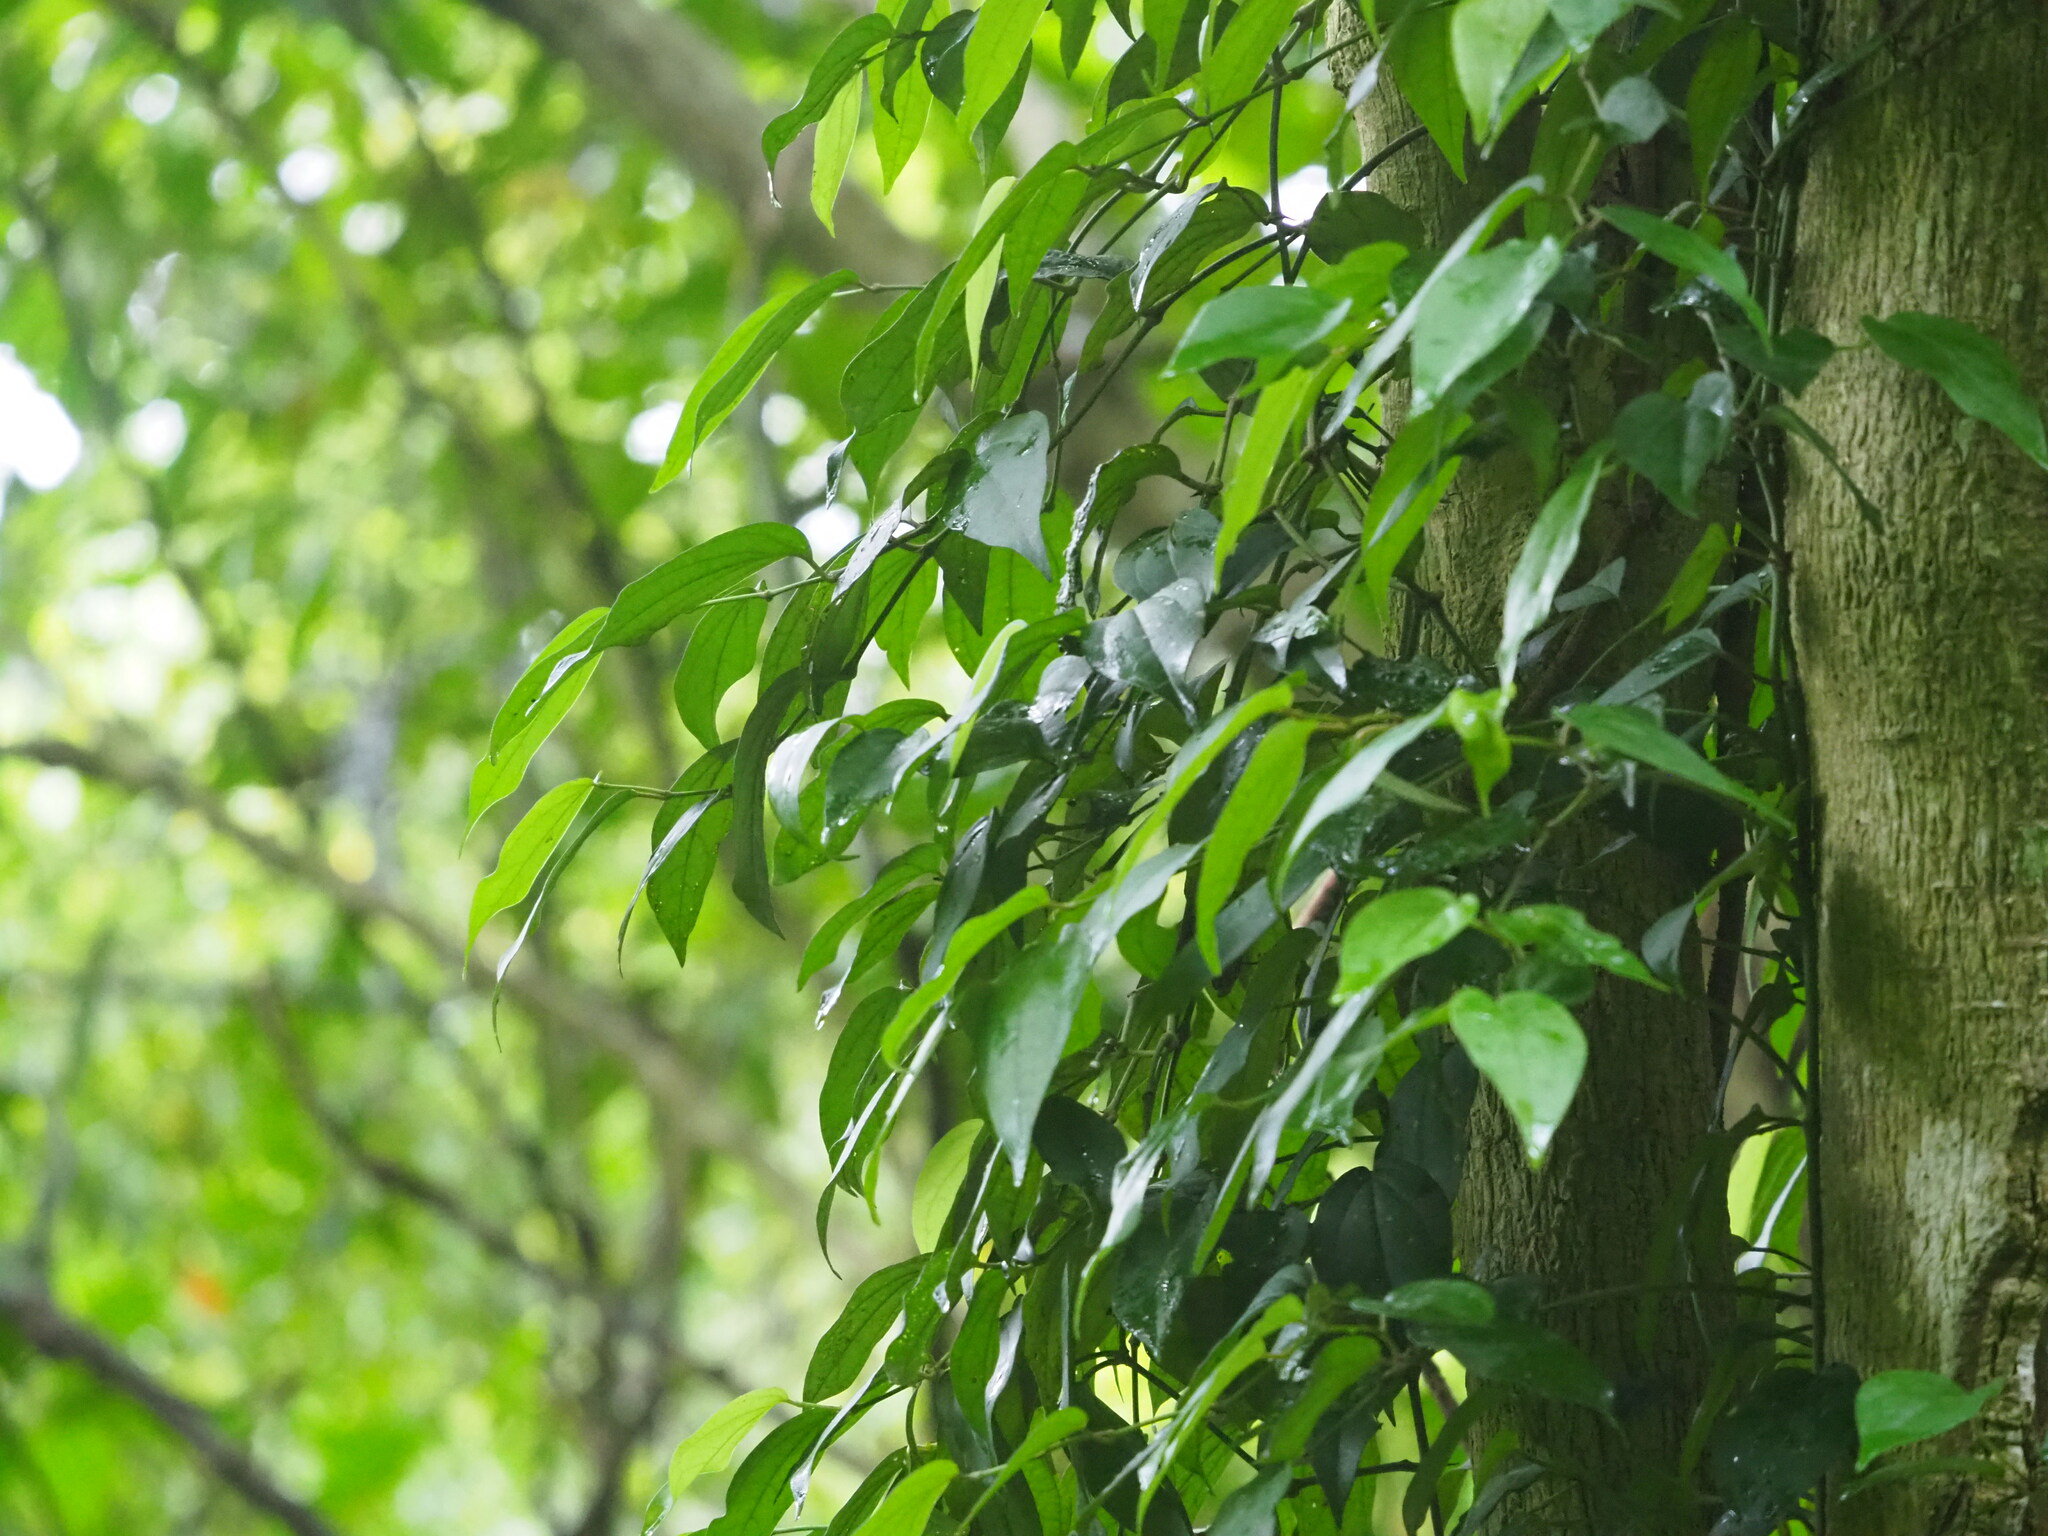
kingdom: Plantae
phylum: Tracheophyta
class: Magnoliopsida
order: Piperales
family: Piperaceae
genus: Piper
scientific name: Piper kadsura
